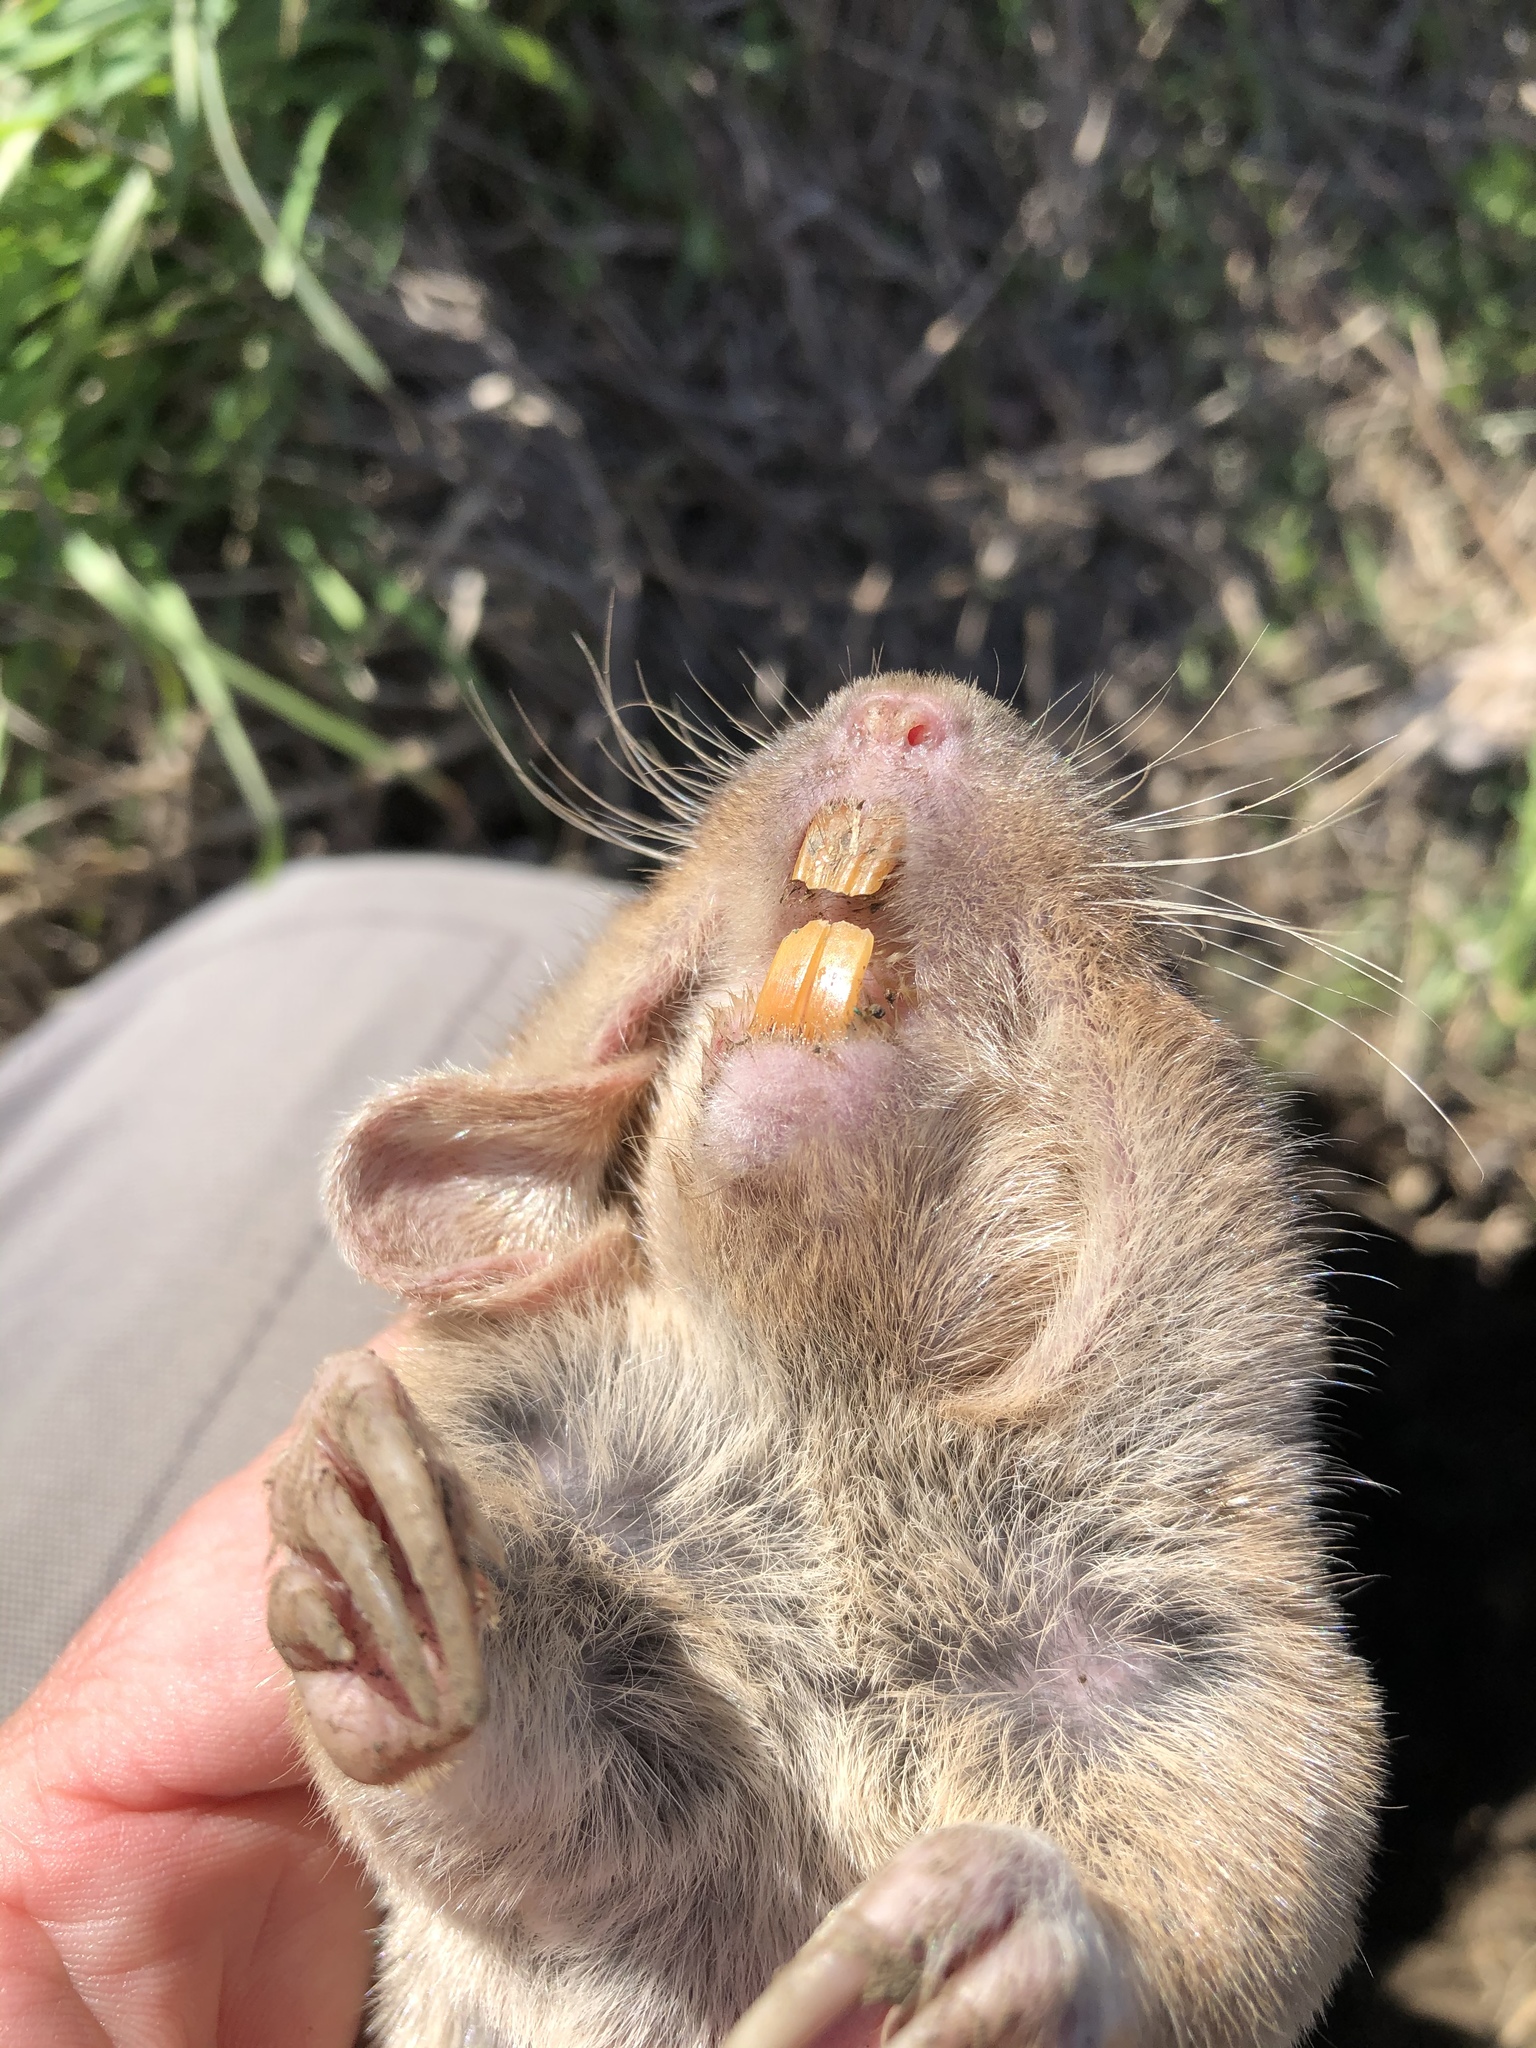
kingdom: Animalia
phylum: Chordata
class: Mammalia
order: Rodentia
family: Geomyidae
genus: Geomys
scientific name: Geomys bursarius
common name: Plains pocket gopher
